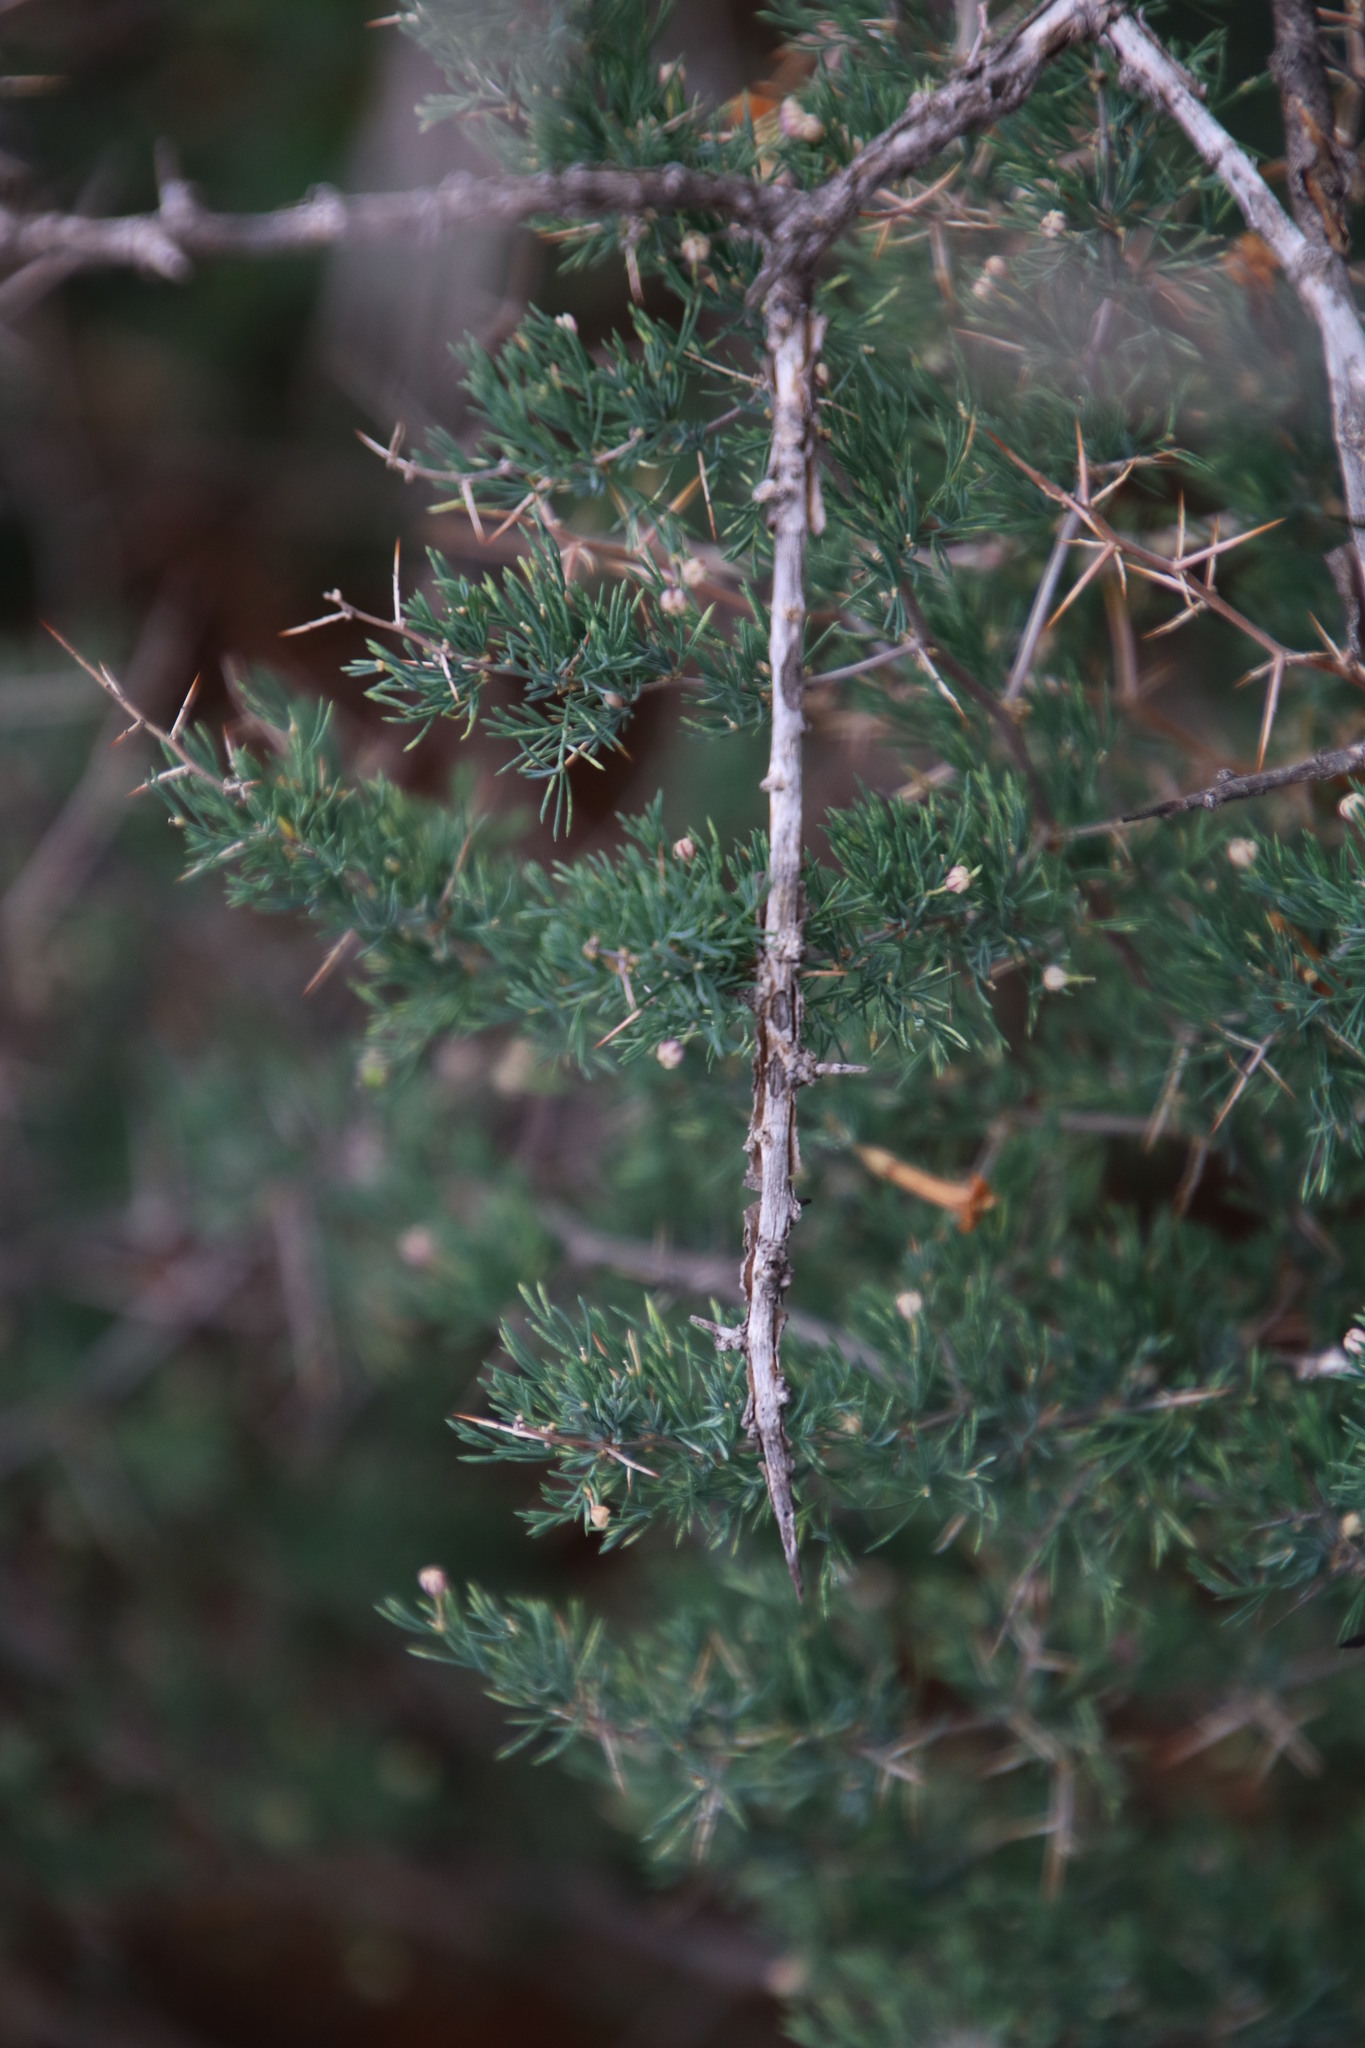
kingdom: Plantae
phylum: Tracheophyta
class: Liliopsida
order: Asparagales
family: Asparagaceae
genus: Asparagus
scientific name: Asparagus suaveolens
